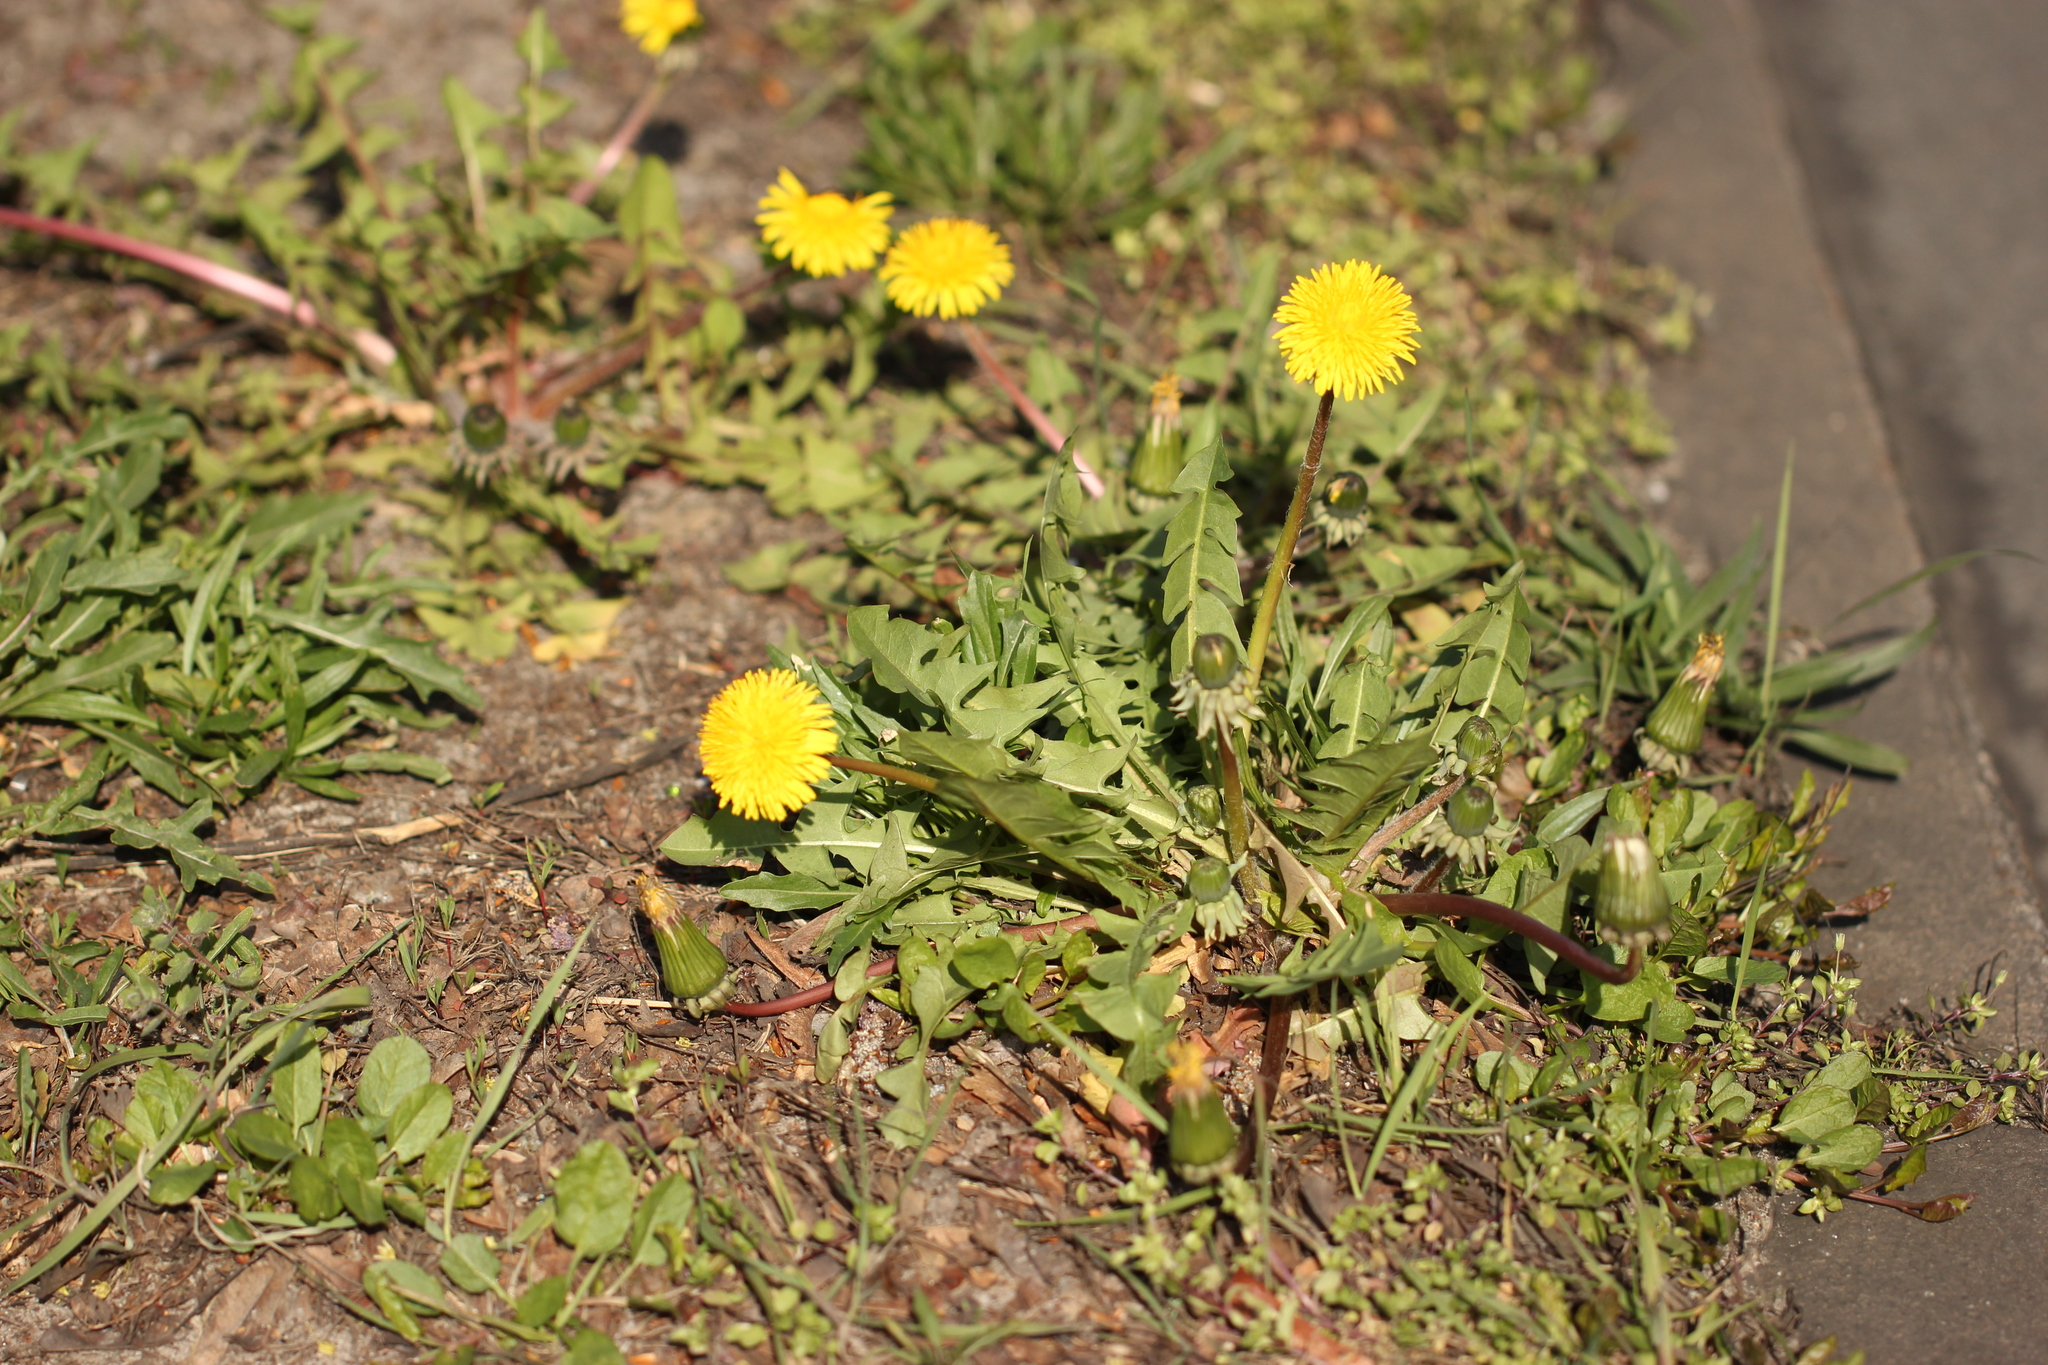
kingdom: Plantae
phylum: Tracheophyta
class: Magnoliopsida
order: Asterales
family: Asteraceae
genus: Taraxacum
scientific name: Taraxacum officinale
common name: Common dandelion
